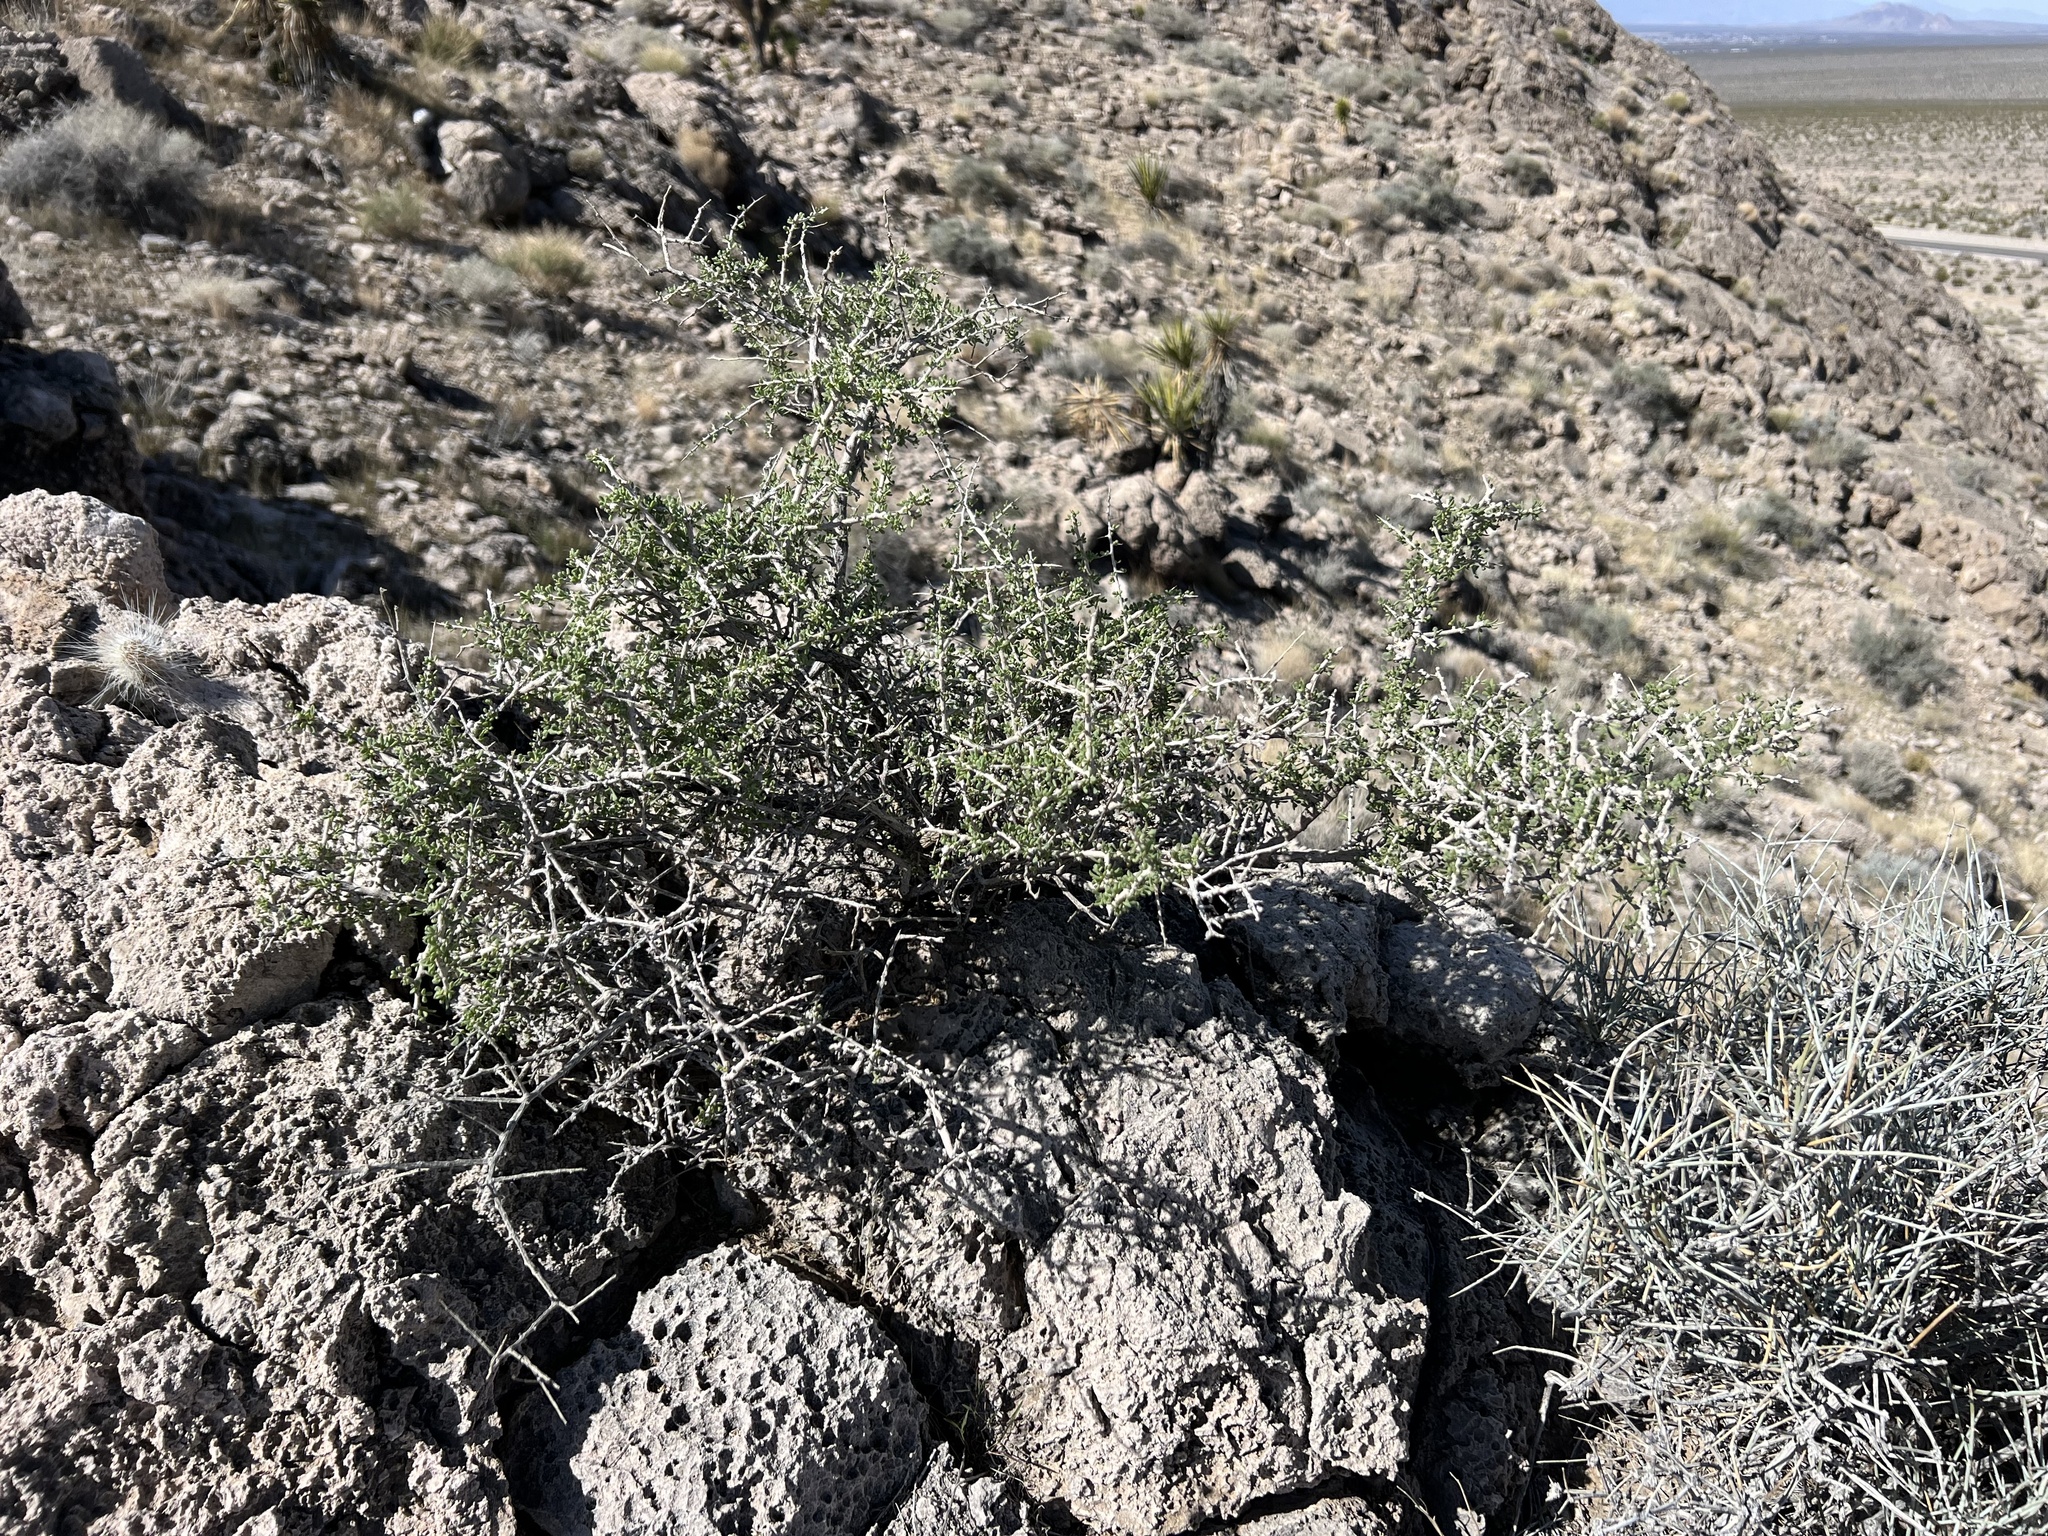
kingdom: Plantae
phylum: Tracheophyta
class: Magnoliopsida
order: Rosales
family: Rosaceae
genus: Prunus
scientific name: Prunus fasciculata
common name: Desert almond
